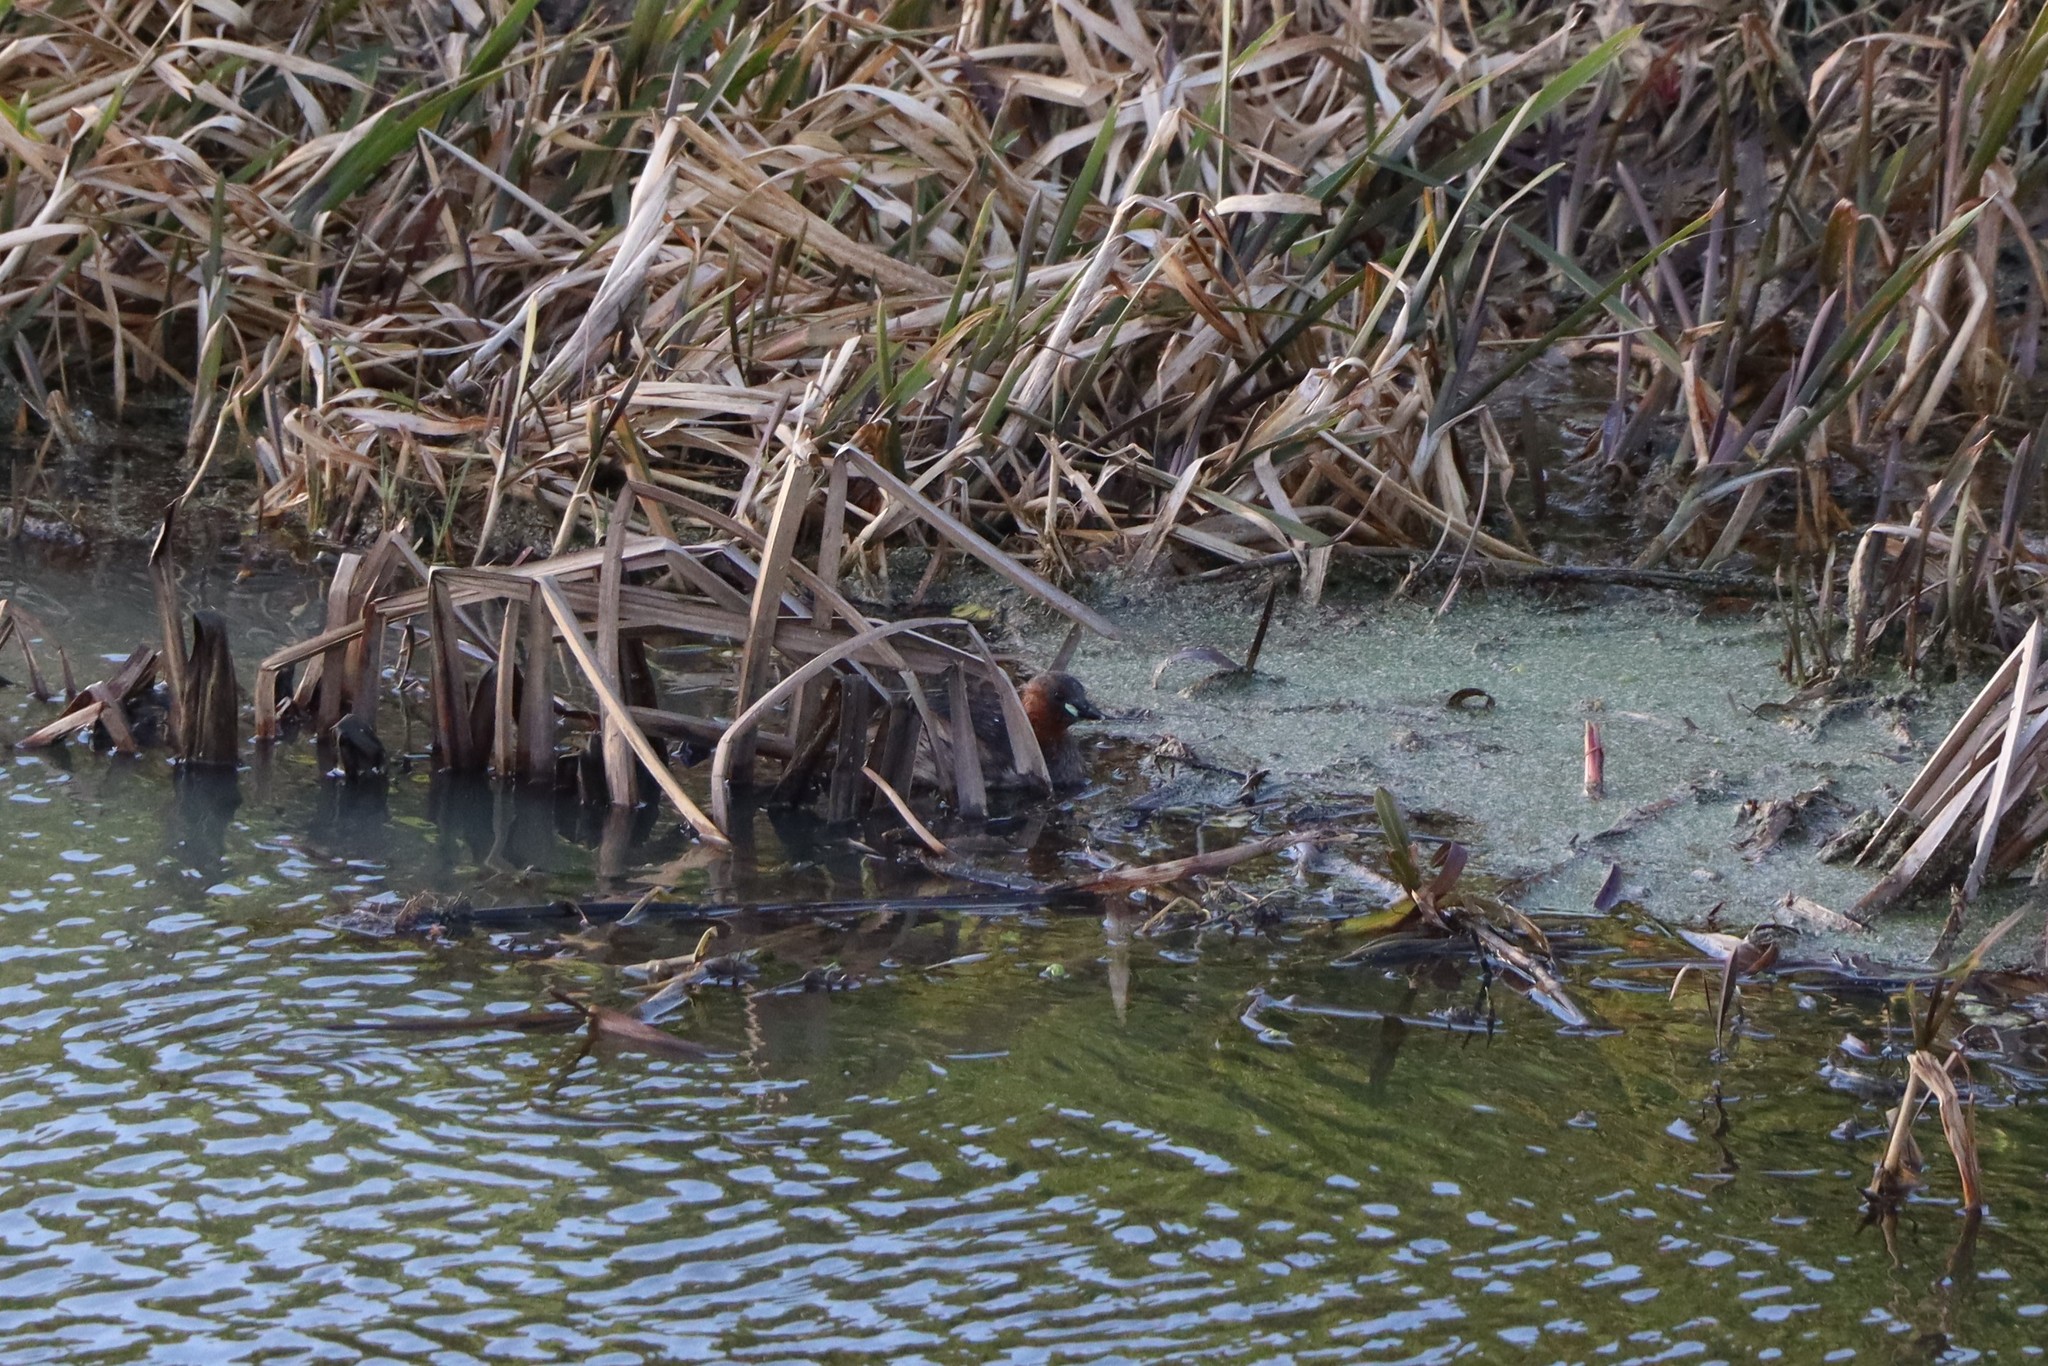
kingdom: Animalia
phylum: Chordata
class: Aves
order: Podicipediformes
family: Podicipedidae
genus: Tachybaptus
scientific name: Tachybaptus ruficollis
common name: Little grebe
